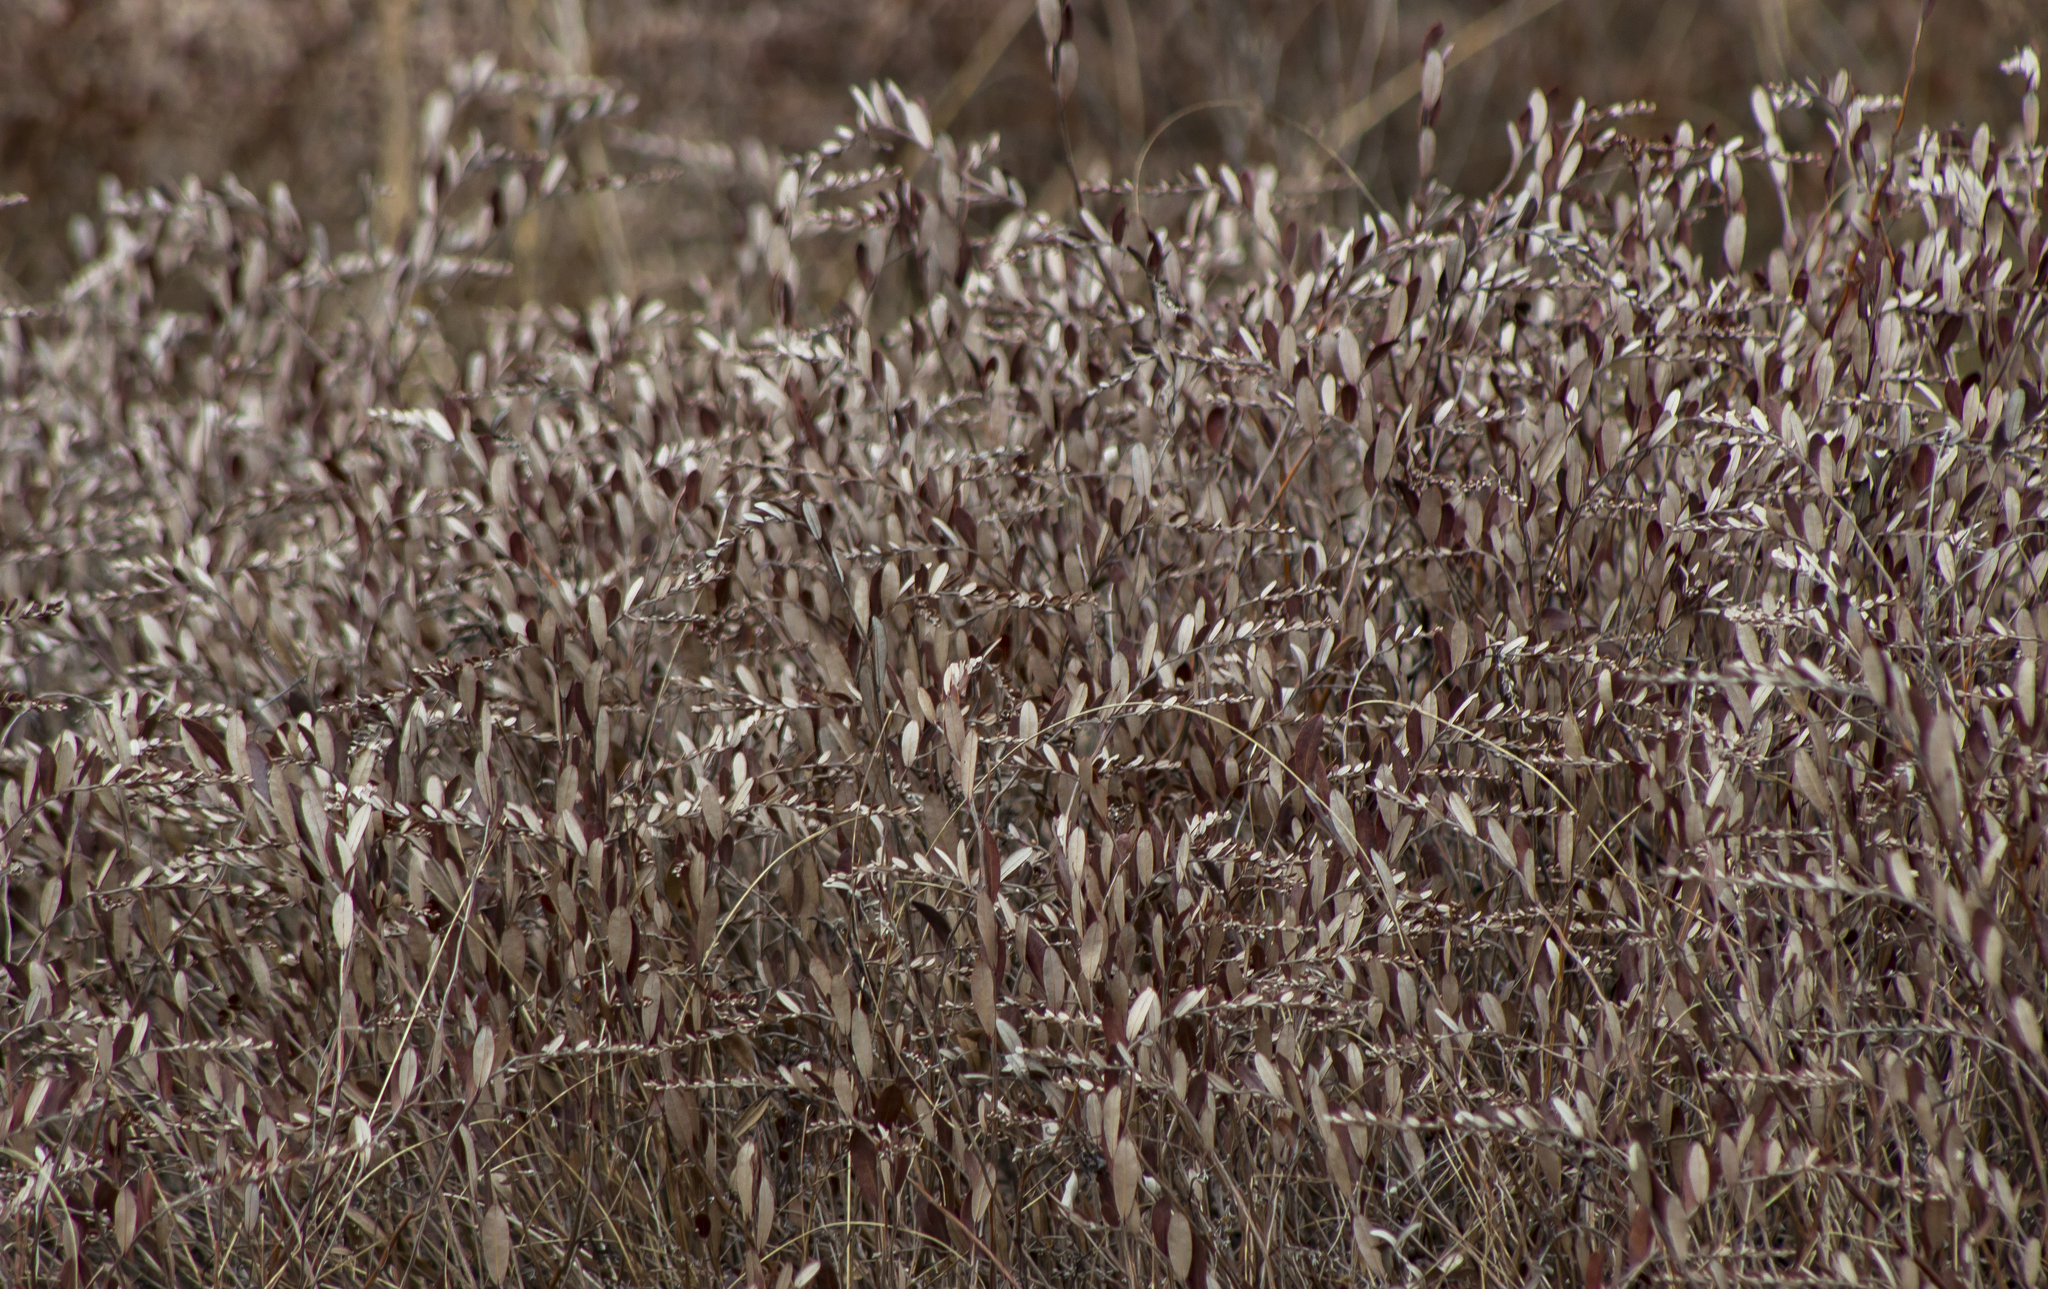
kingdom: Plantae
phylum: Tracheophyta
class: Magnoliopsida
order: Ericales
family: Ericaceae
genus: Chamaedaphne
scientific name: Chamaedaphne calyculata
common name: Leatherleaf
